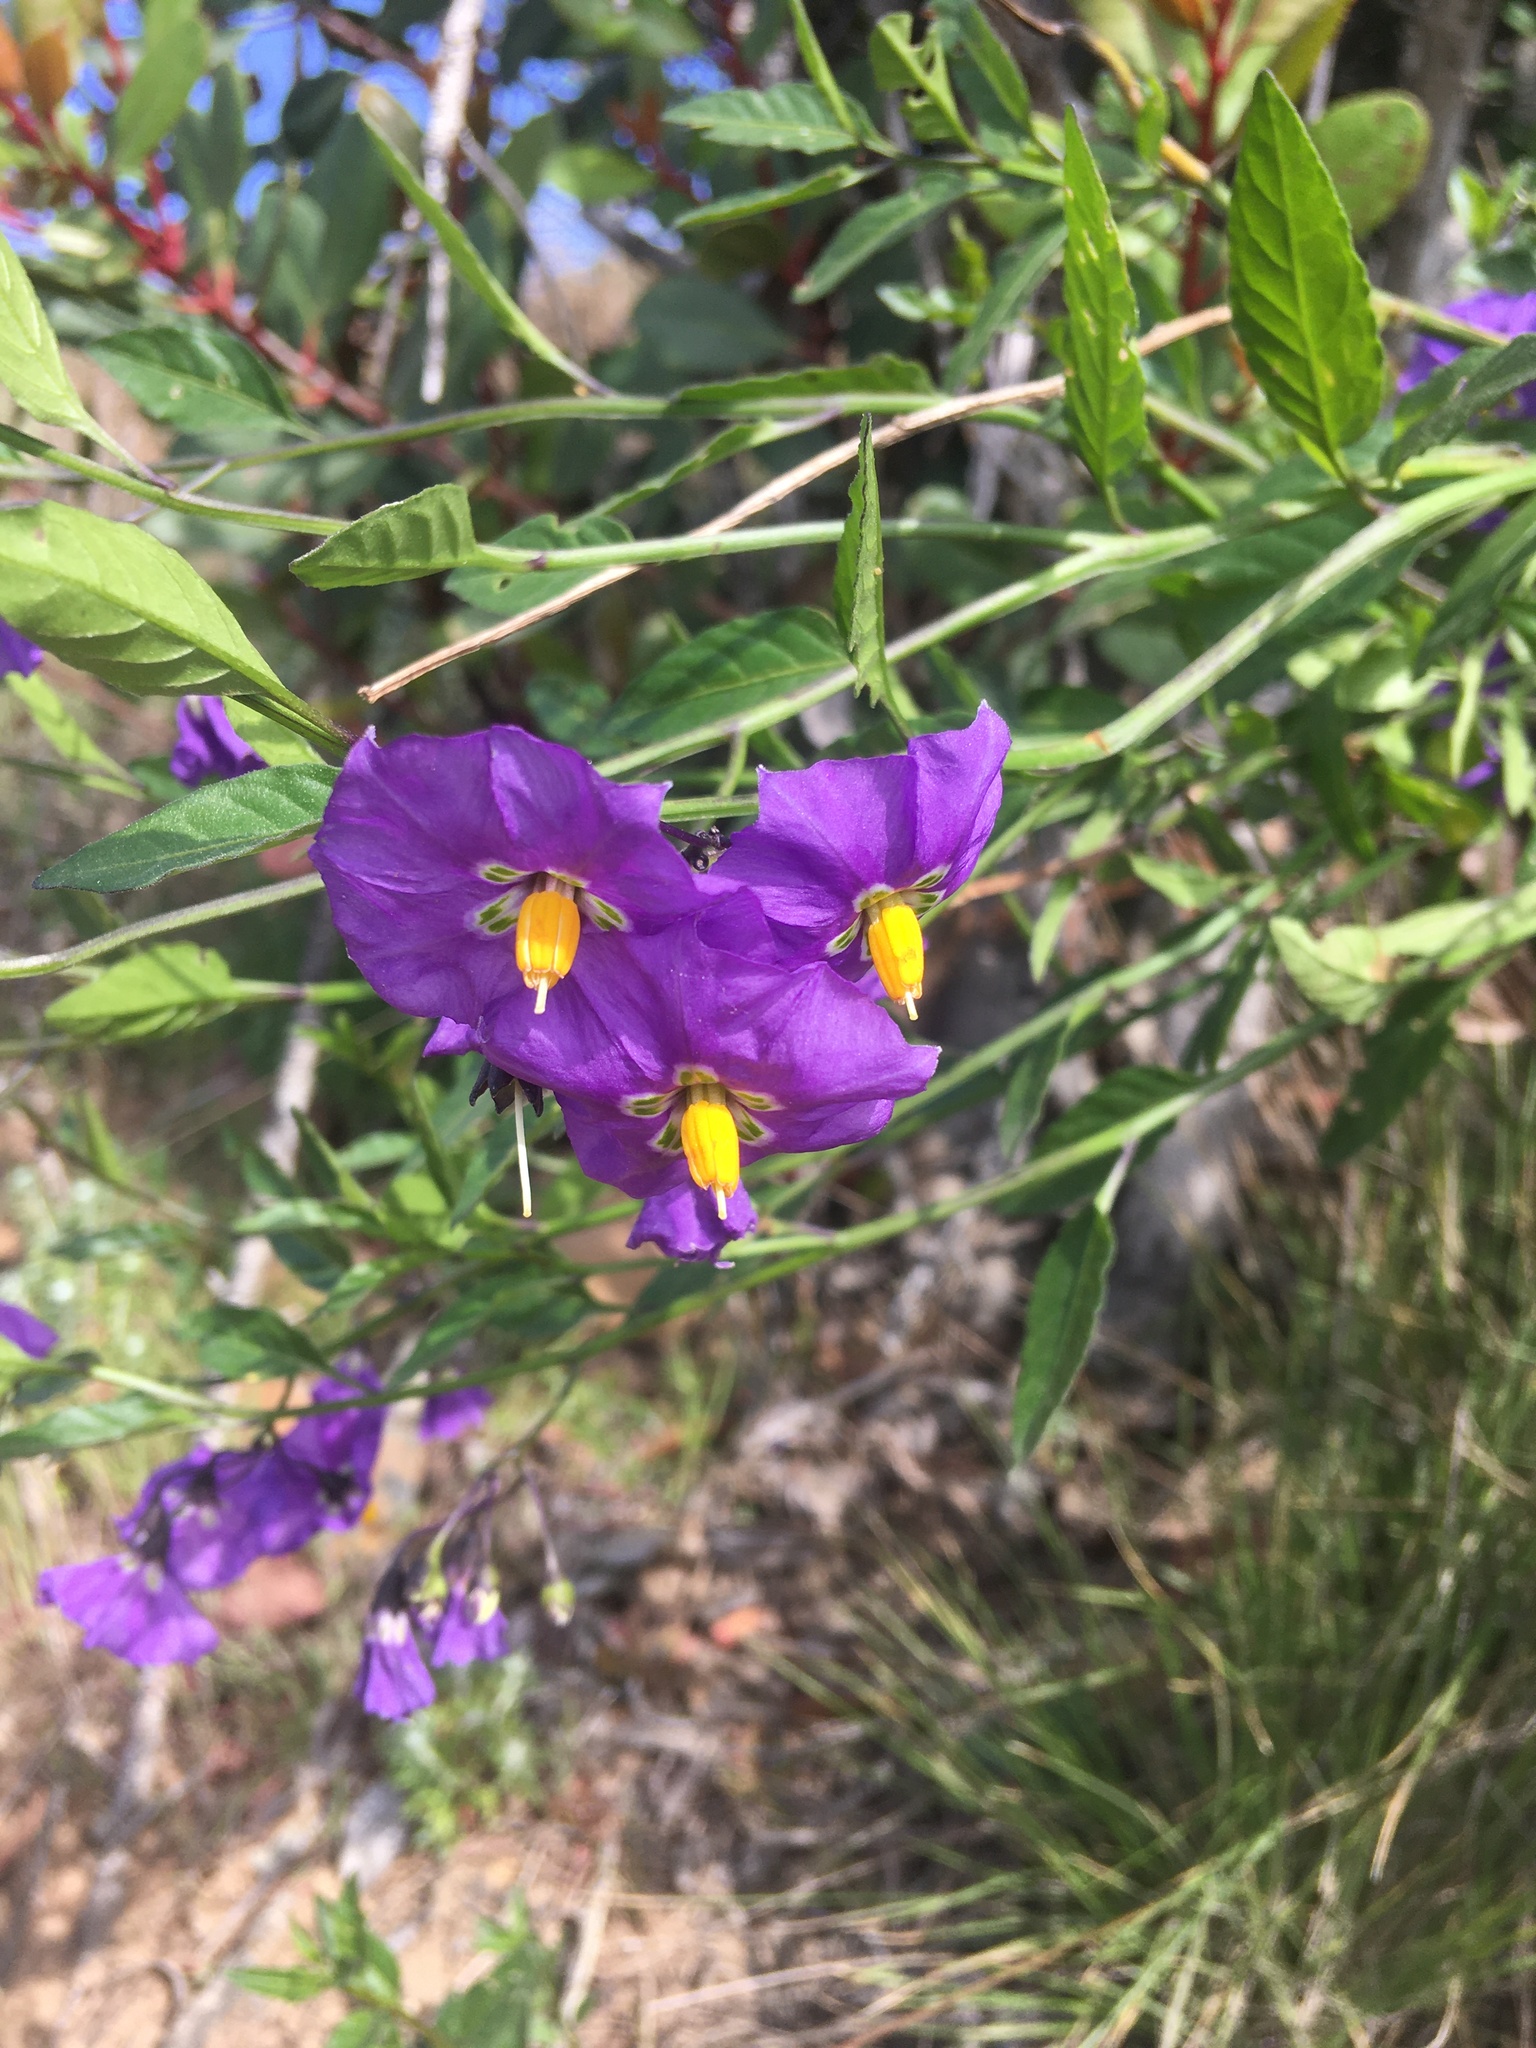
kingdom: Plantae
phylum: Tracheophyta
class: Magnoliopsida
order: Solanales
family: Solanaceae
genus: Solanum
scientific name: Solanum umbelliferum
